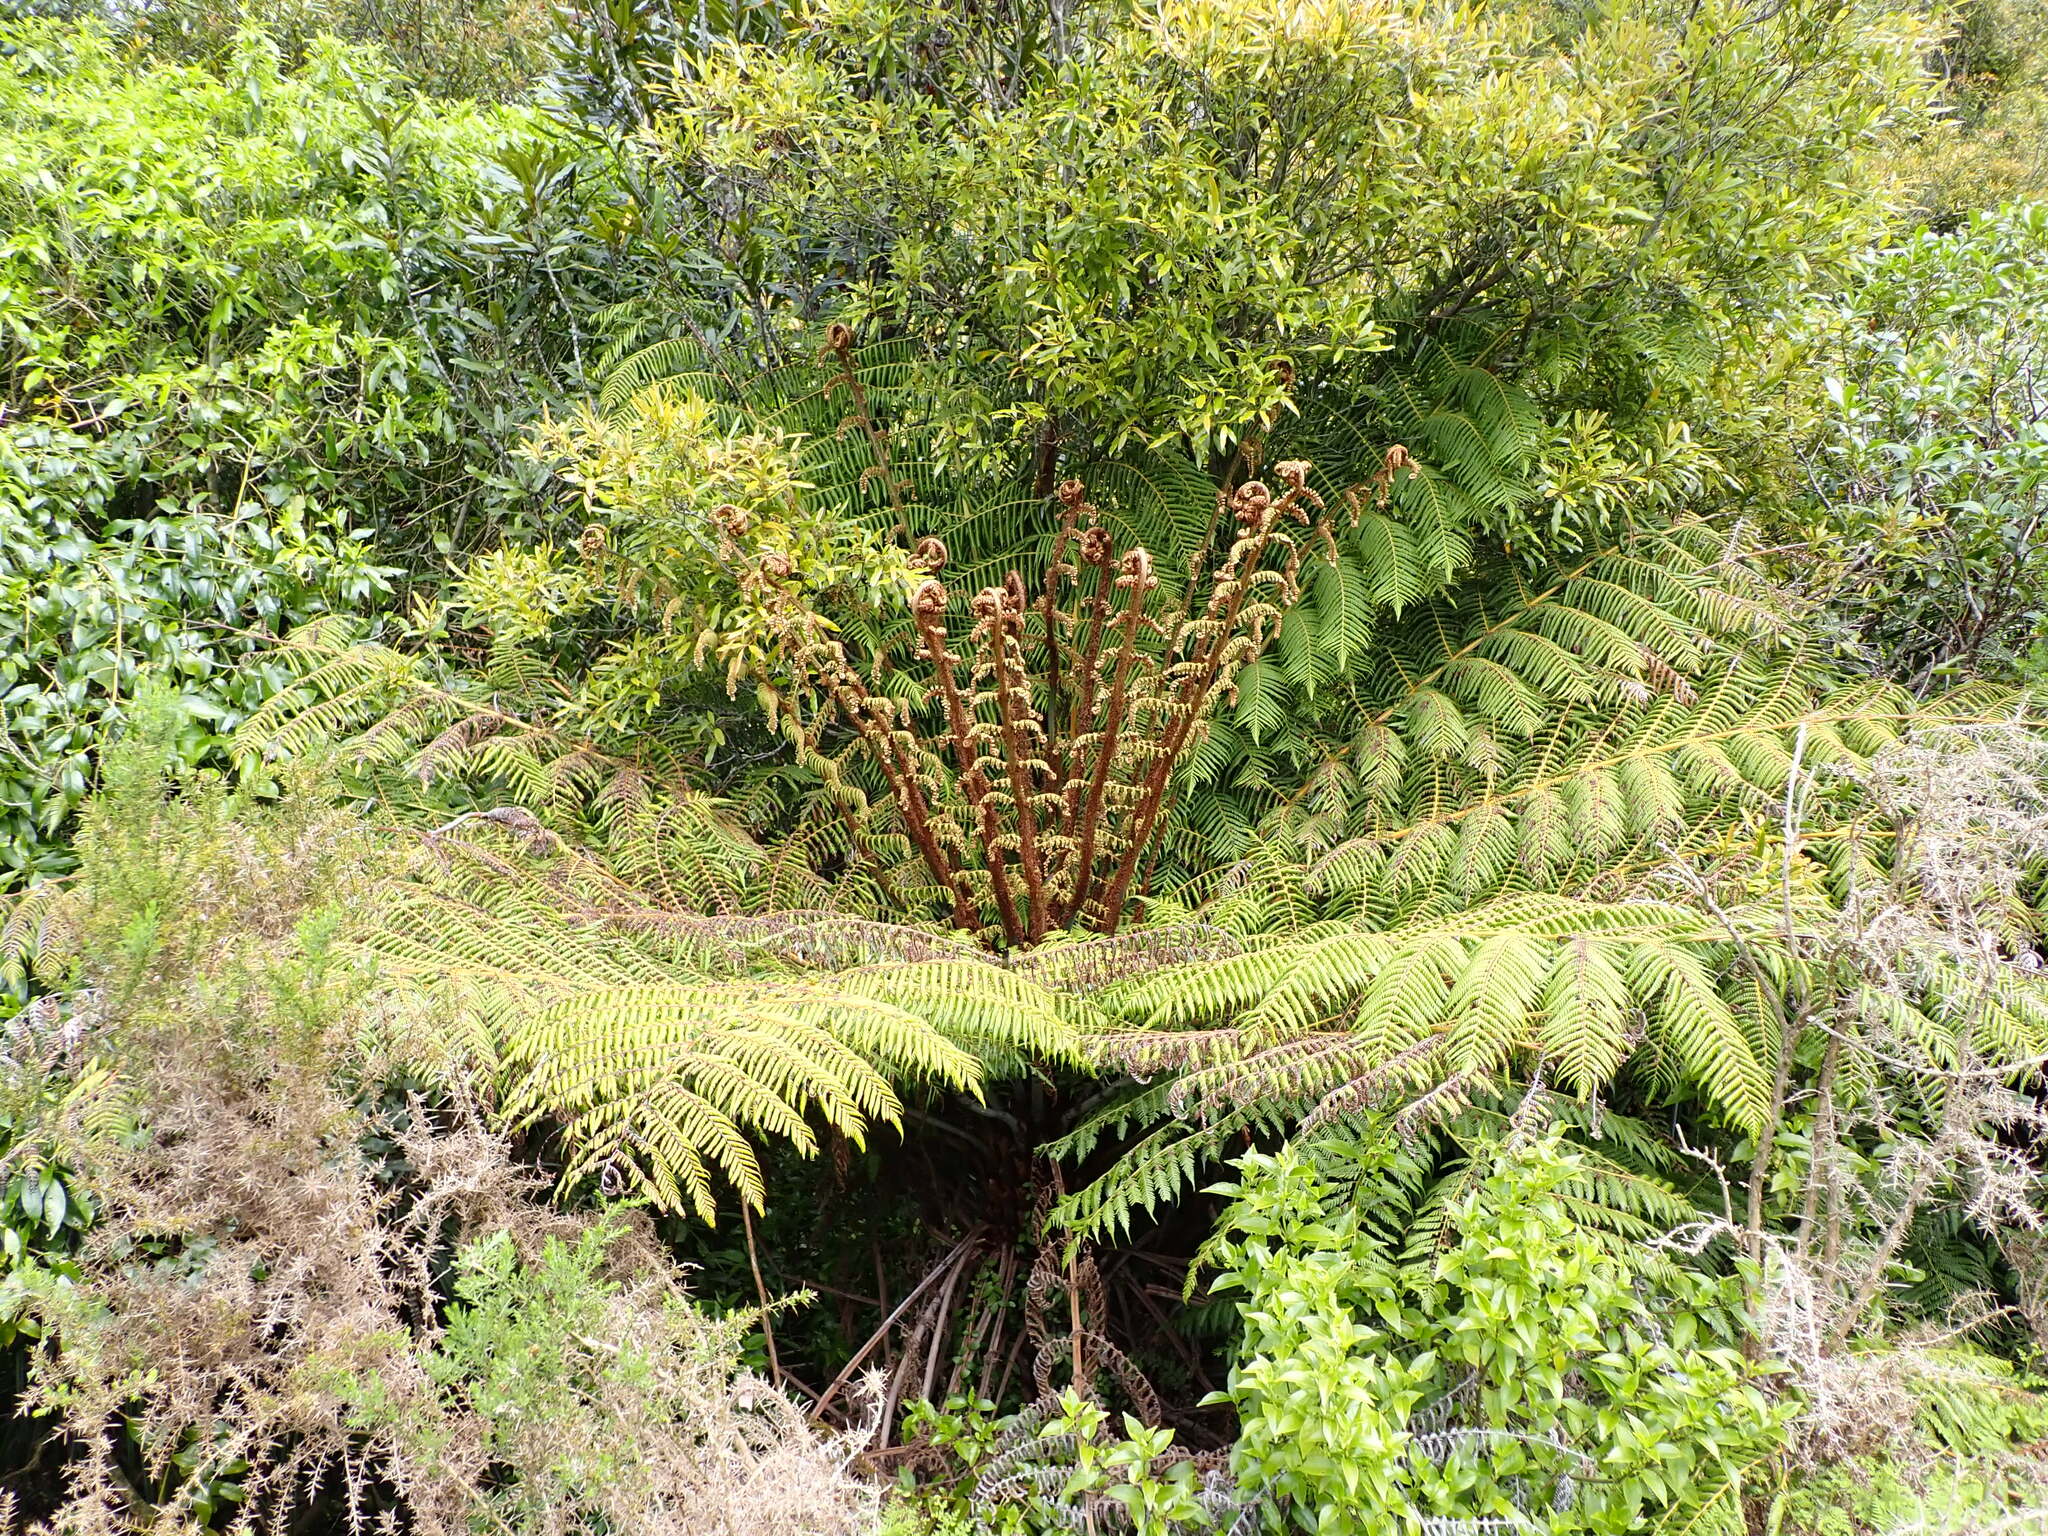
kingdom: Plantae
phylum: Tracheophyta
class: Polypodiopsida
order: Cyatheales
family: Cyatheaceae
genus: Alsophila
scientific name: Alsophila dealbata
